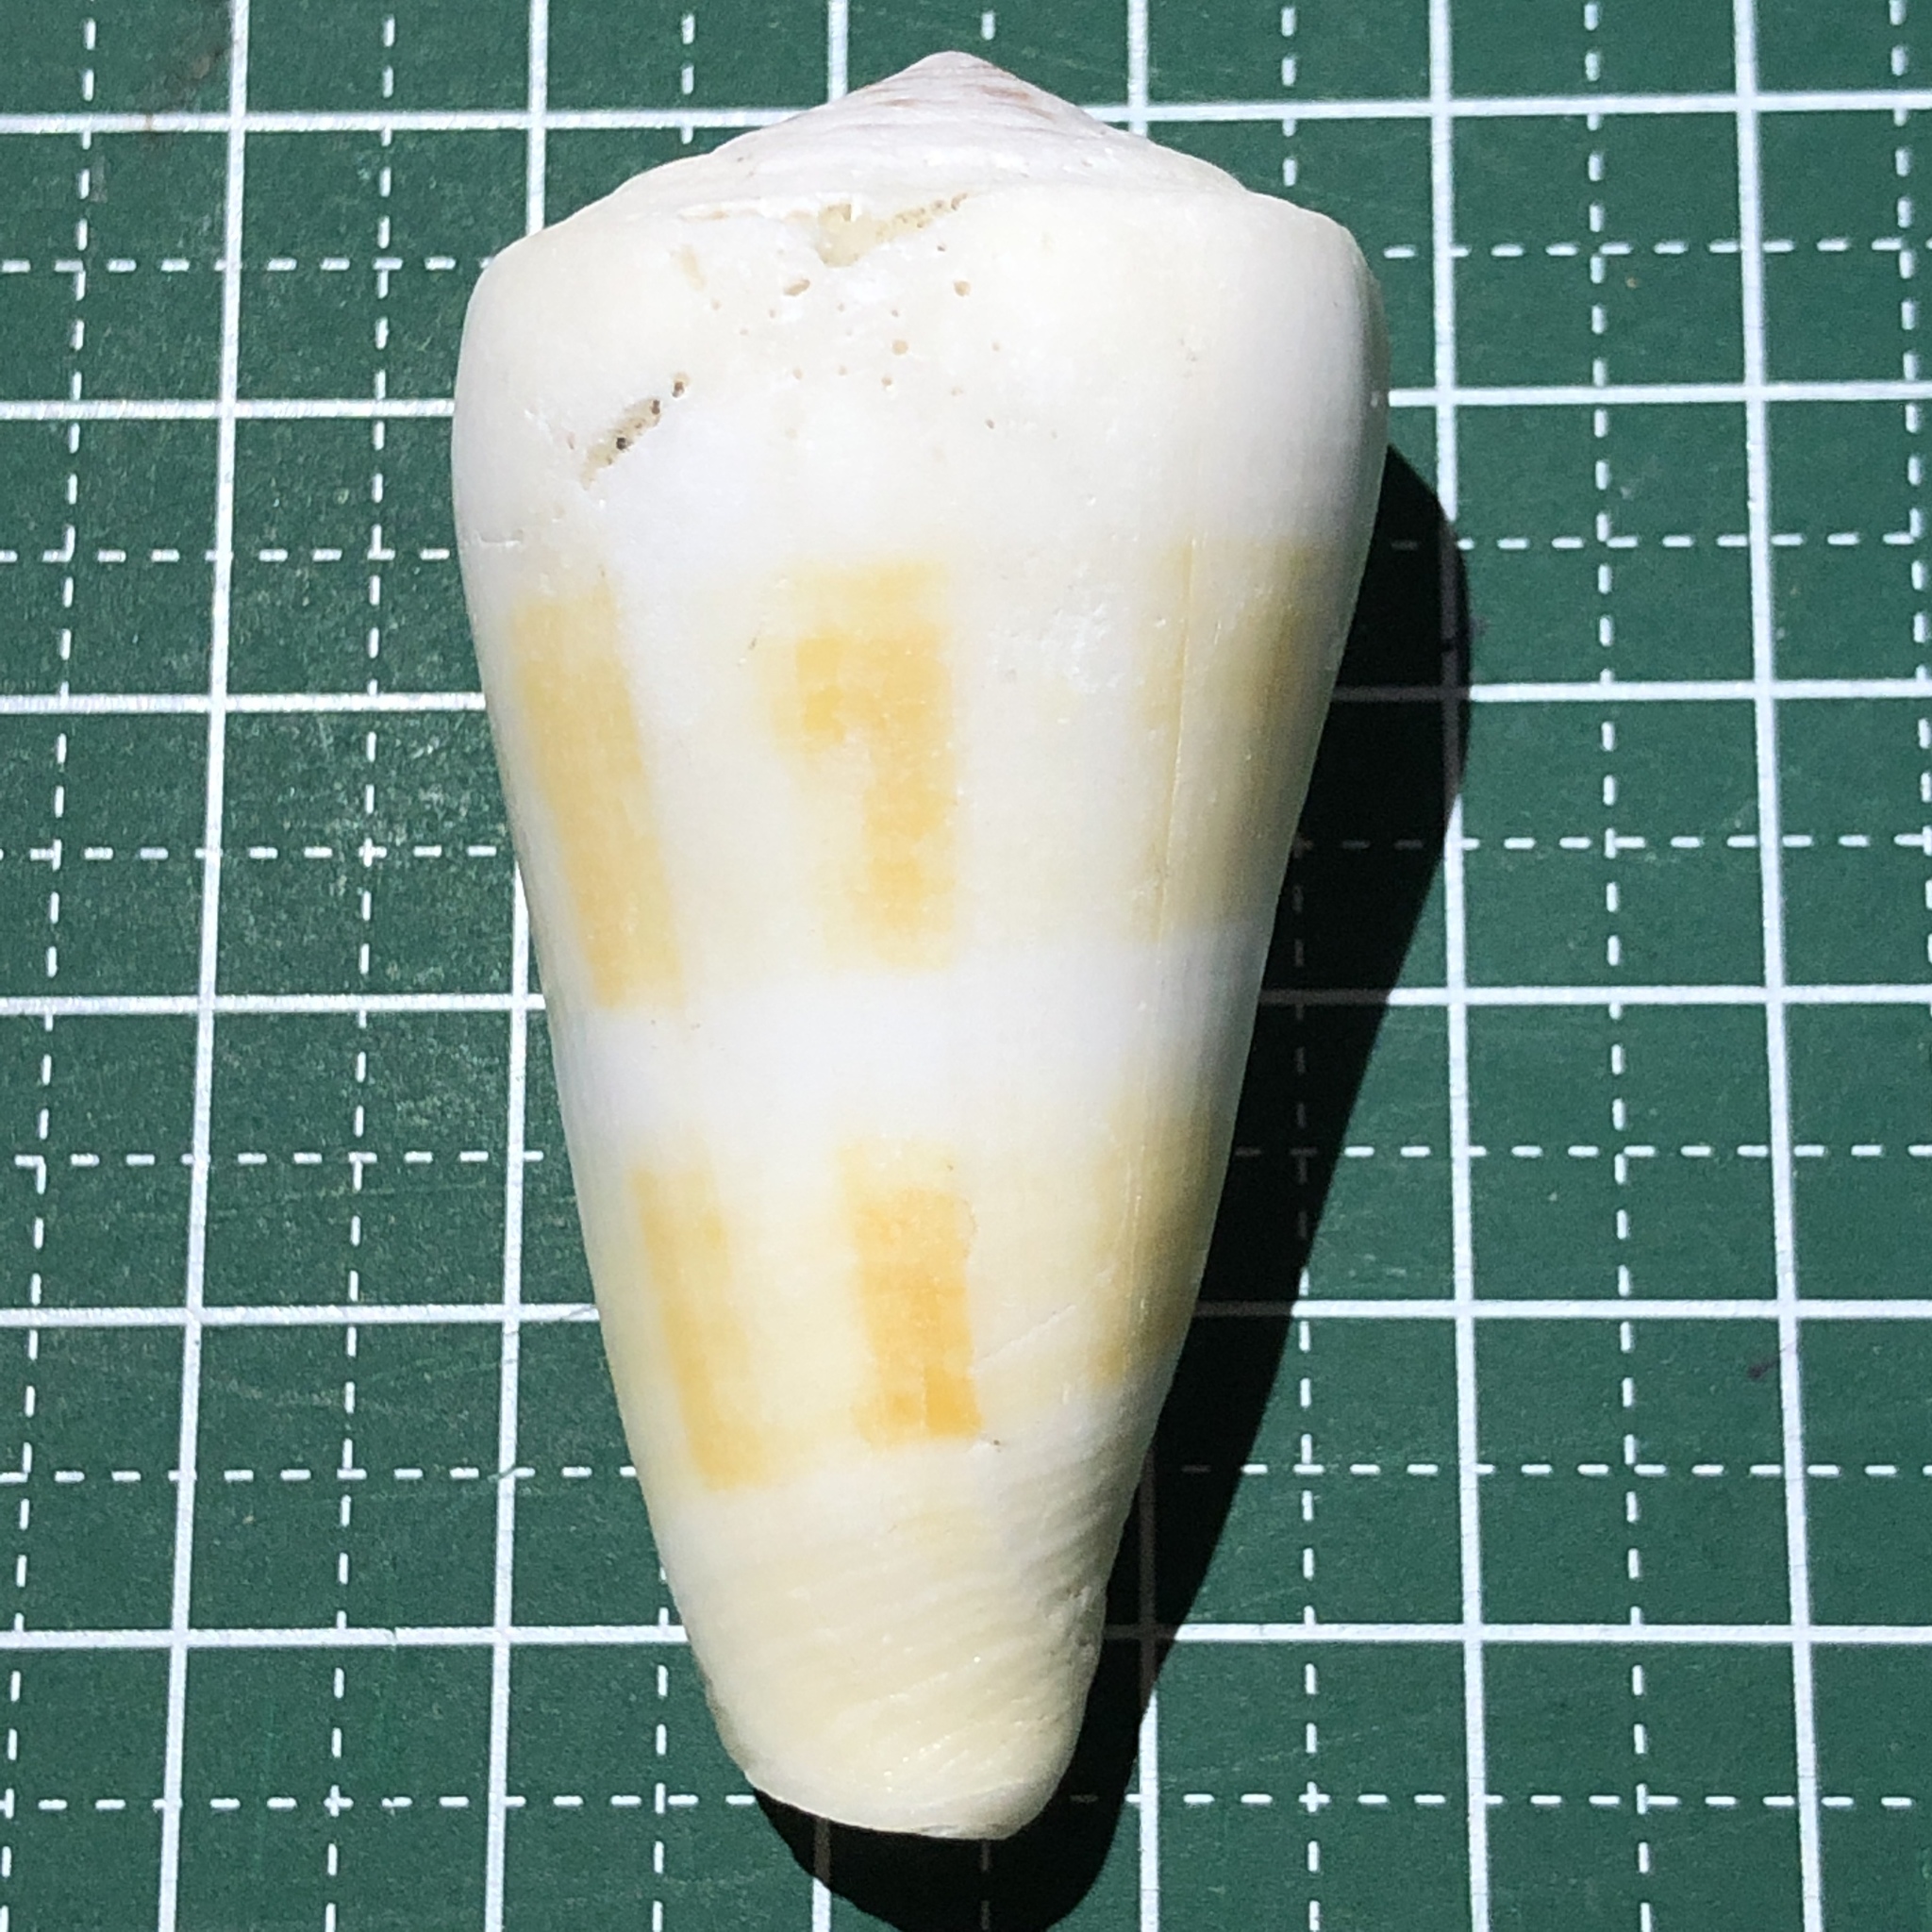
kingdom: Animalia
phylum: Mollusca
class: Gastropoda
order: Neogastropoda
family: Conidae
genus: Conus
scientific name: Conus consors
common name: Singed cone
